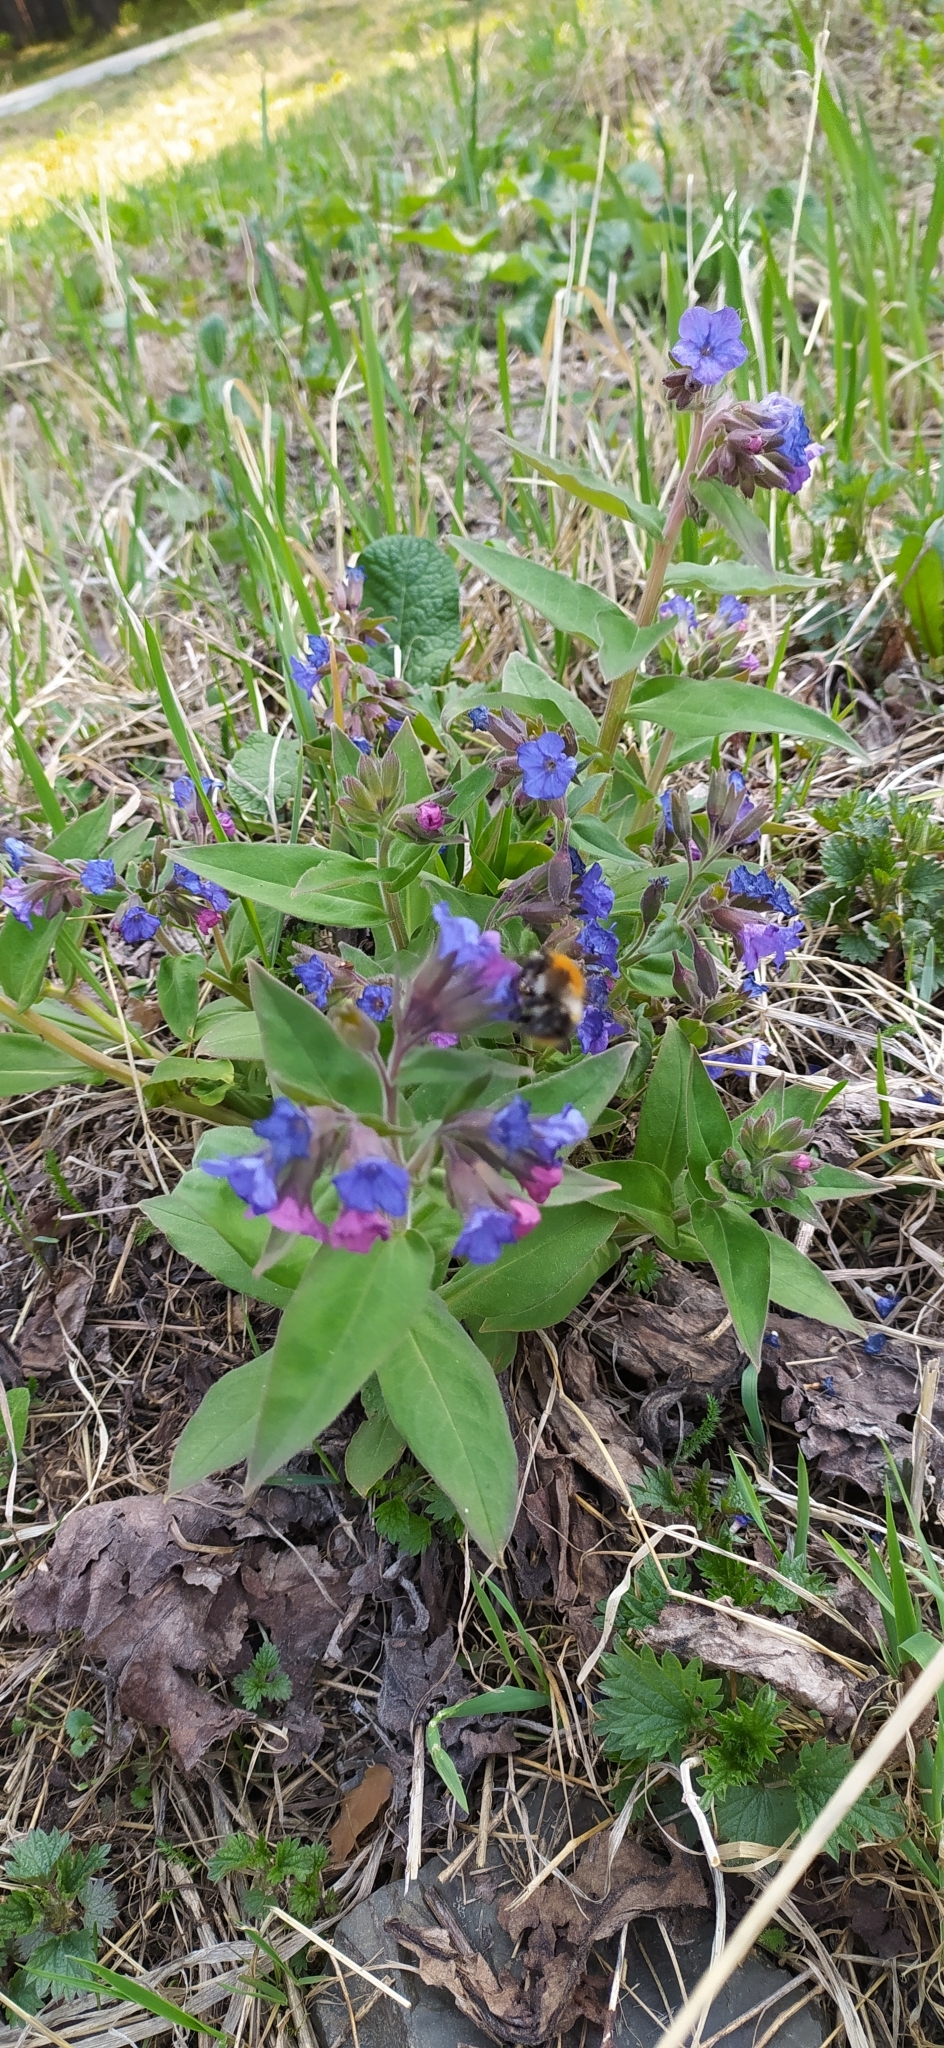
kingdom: Plantae
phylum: Tracheophyta
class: Magnoliopsida
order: Boraginales
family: Boraginaceae
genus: Pulmonaria
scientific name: Pulmonaria mollis
